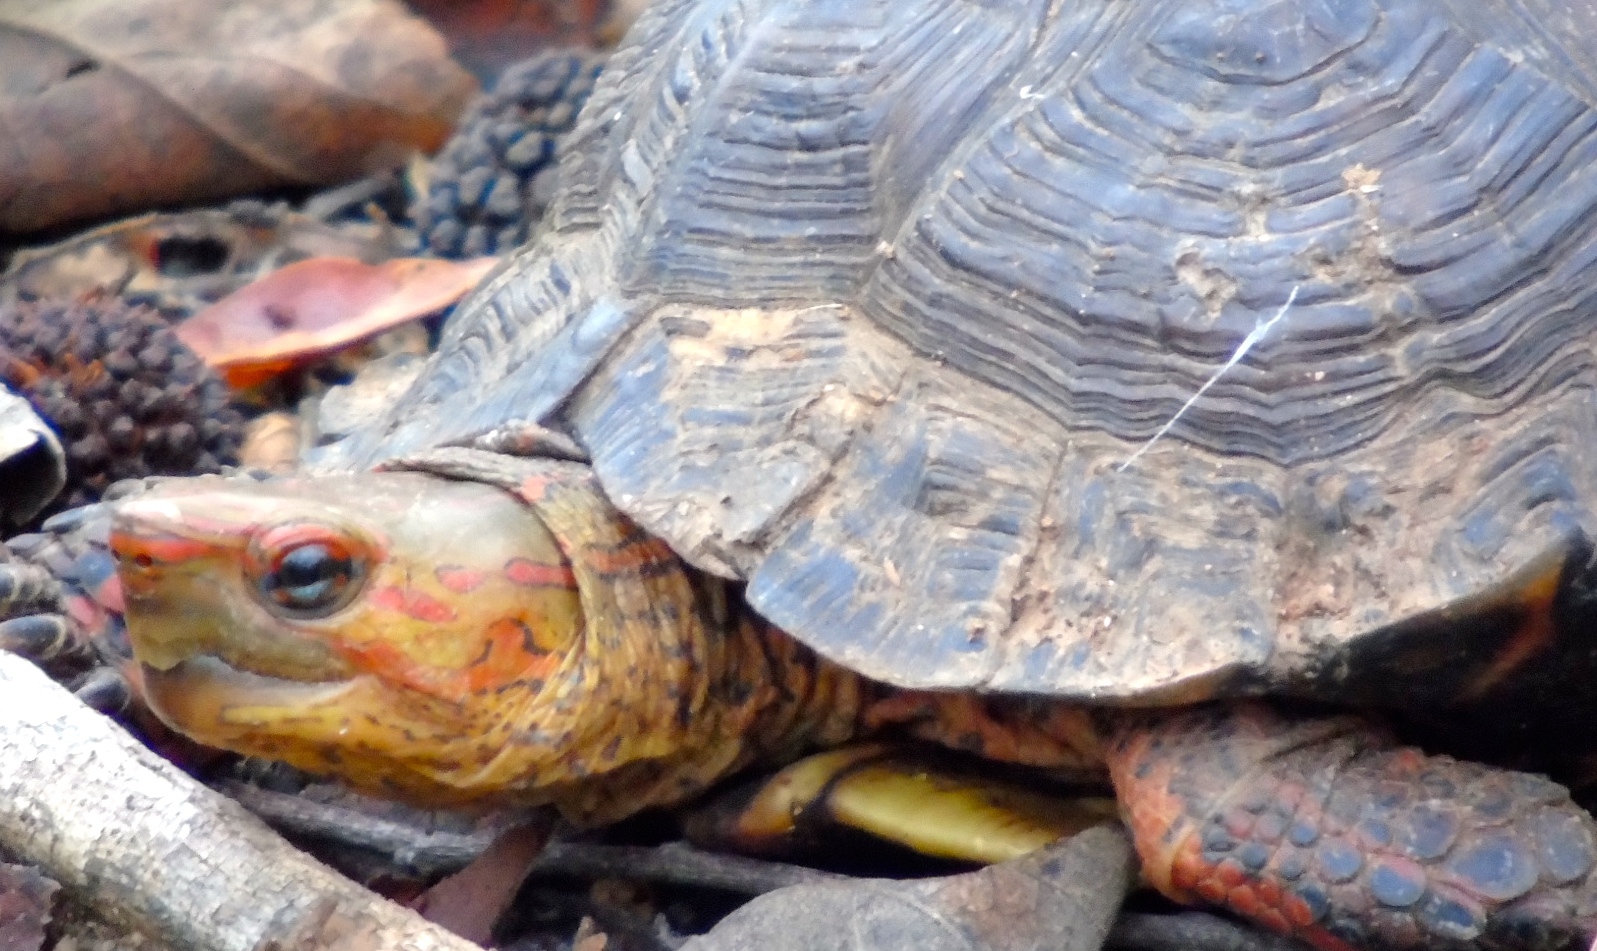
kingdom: Animalia
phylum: Chordata
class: Testudines
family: Geoemydidae
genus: Rhinoclemmys
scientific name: Rhinoclemmys pulcherrima
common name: Painted wood turtle
